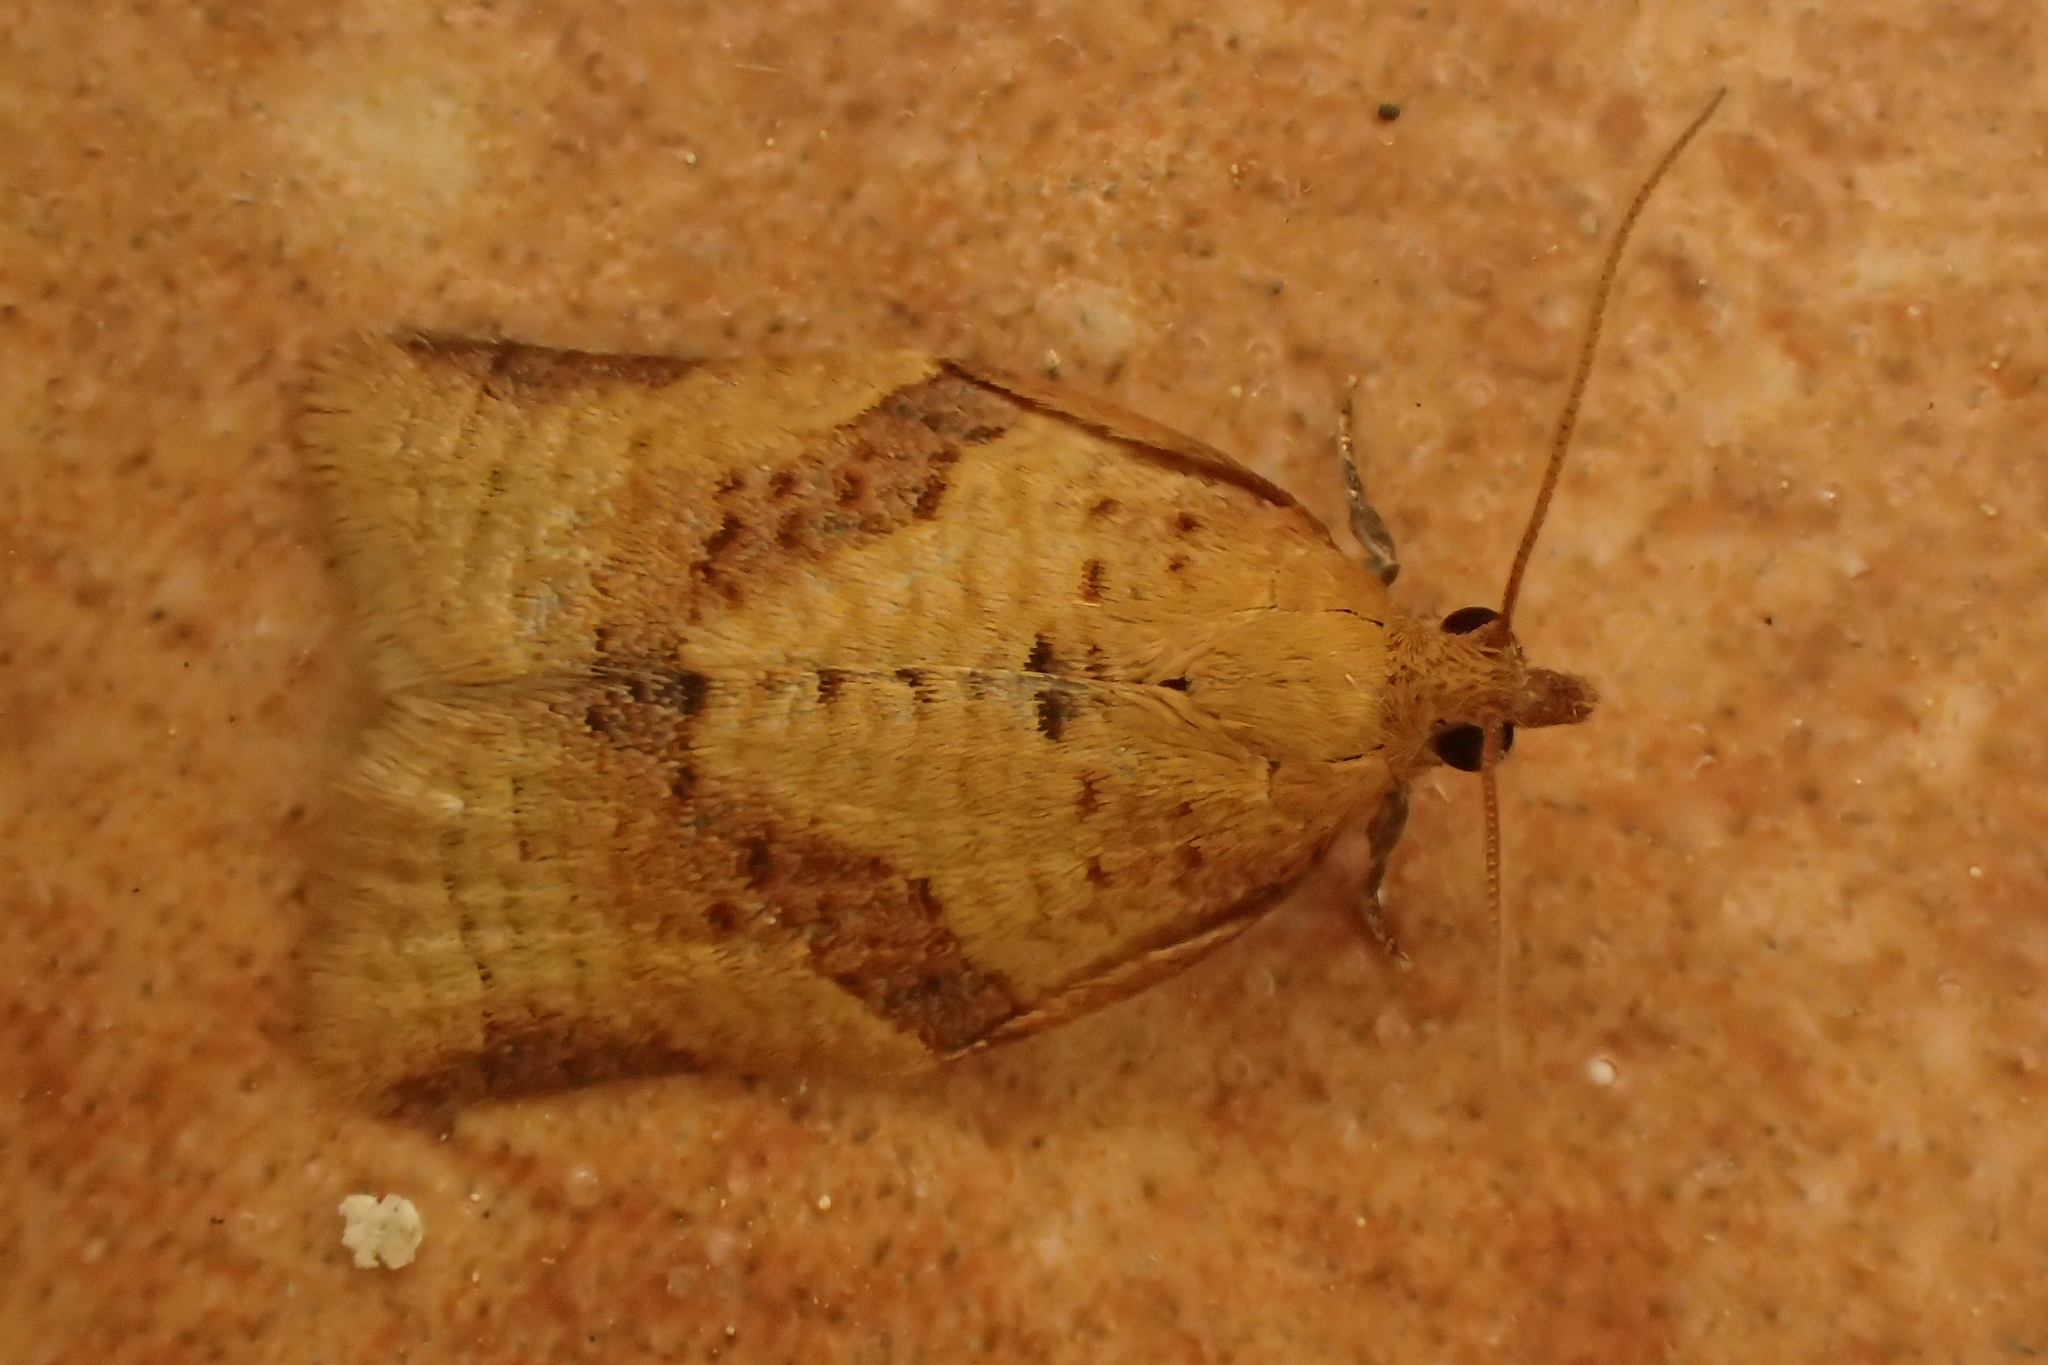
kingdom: Animalia
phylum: Arthropoda
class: Insecta
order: Lepidoptera
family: Tortricidae
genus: Clepsis
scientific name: Clepsis consimilana
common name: Privet tortrix
